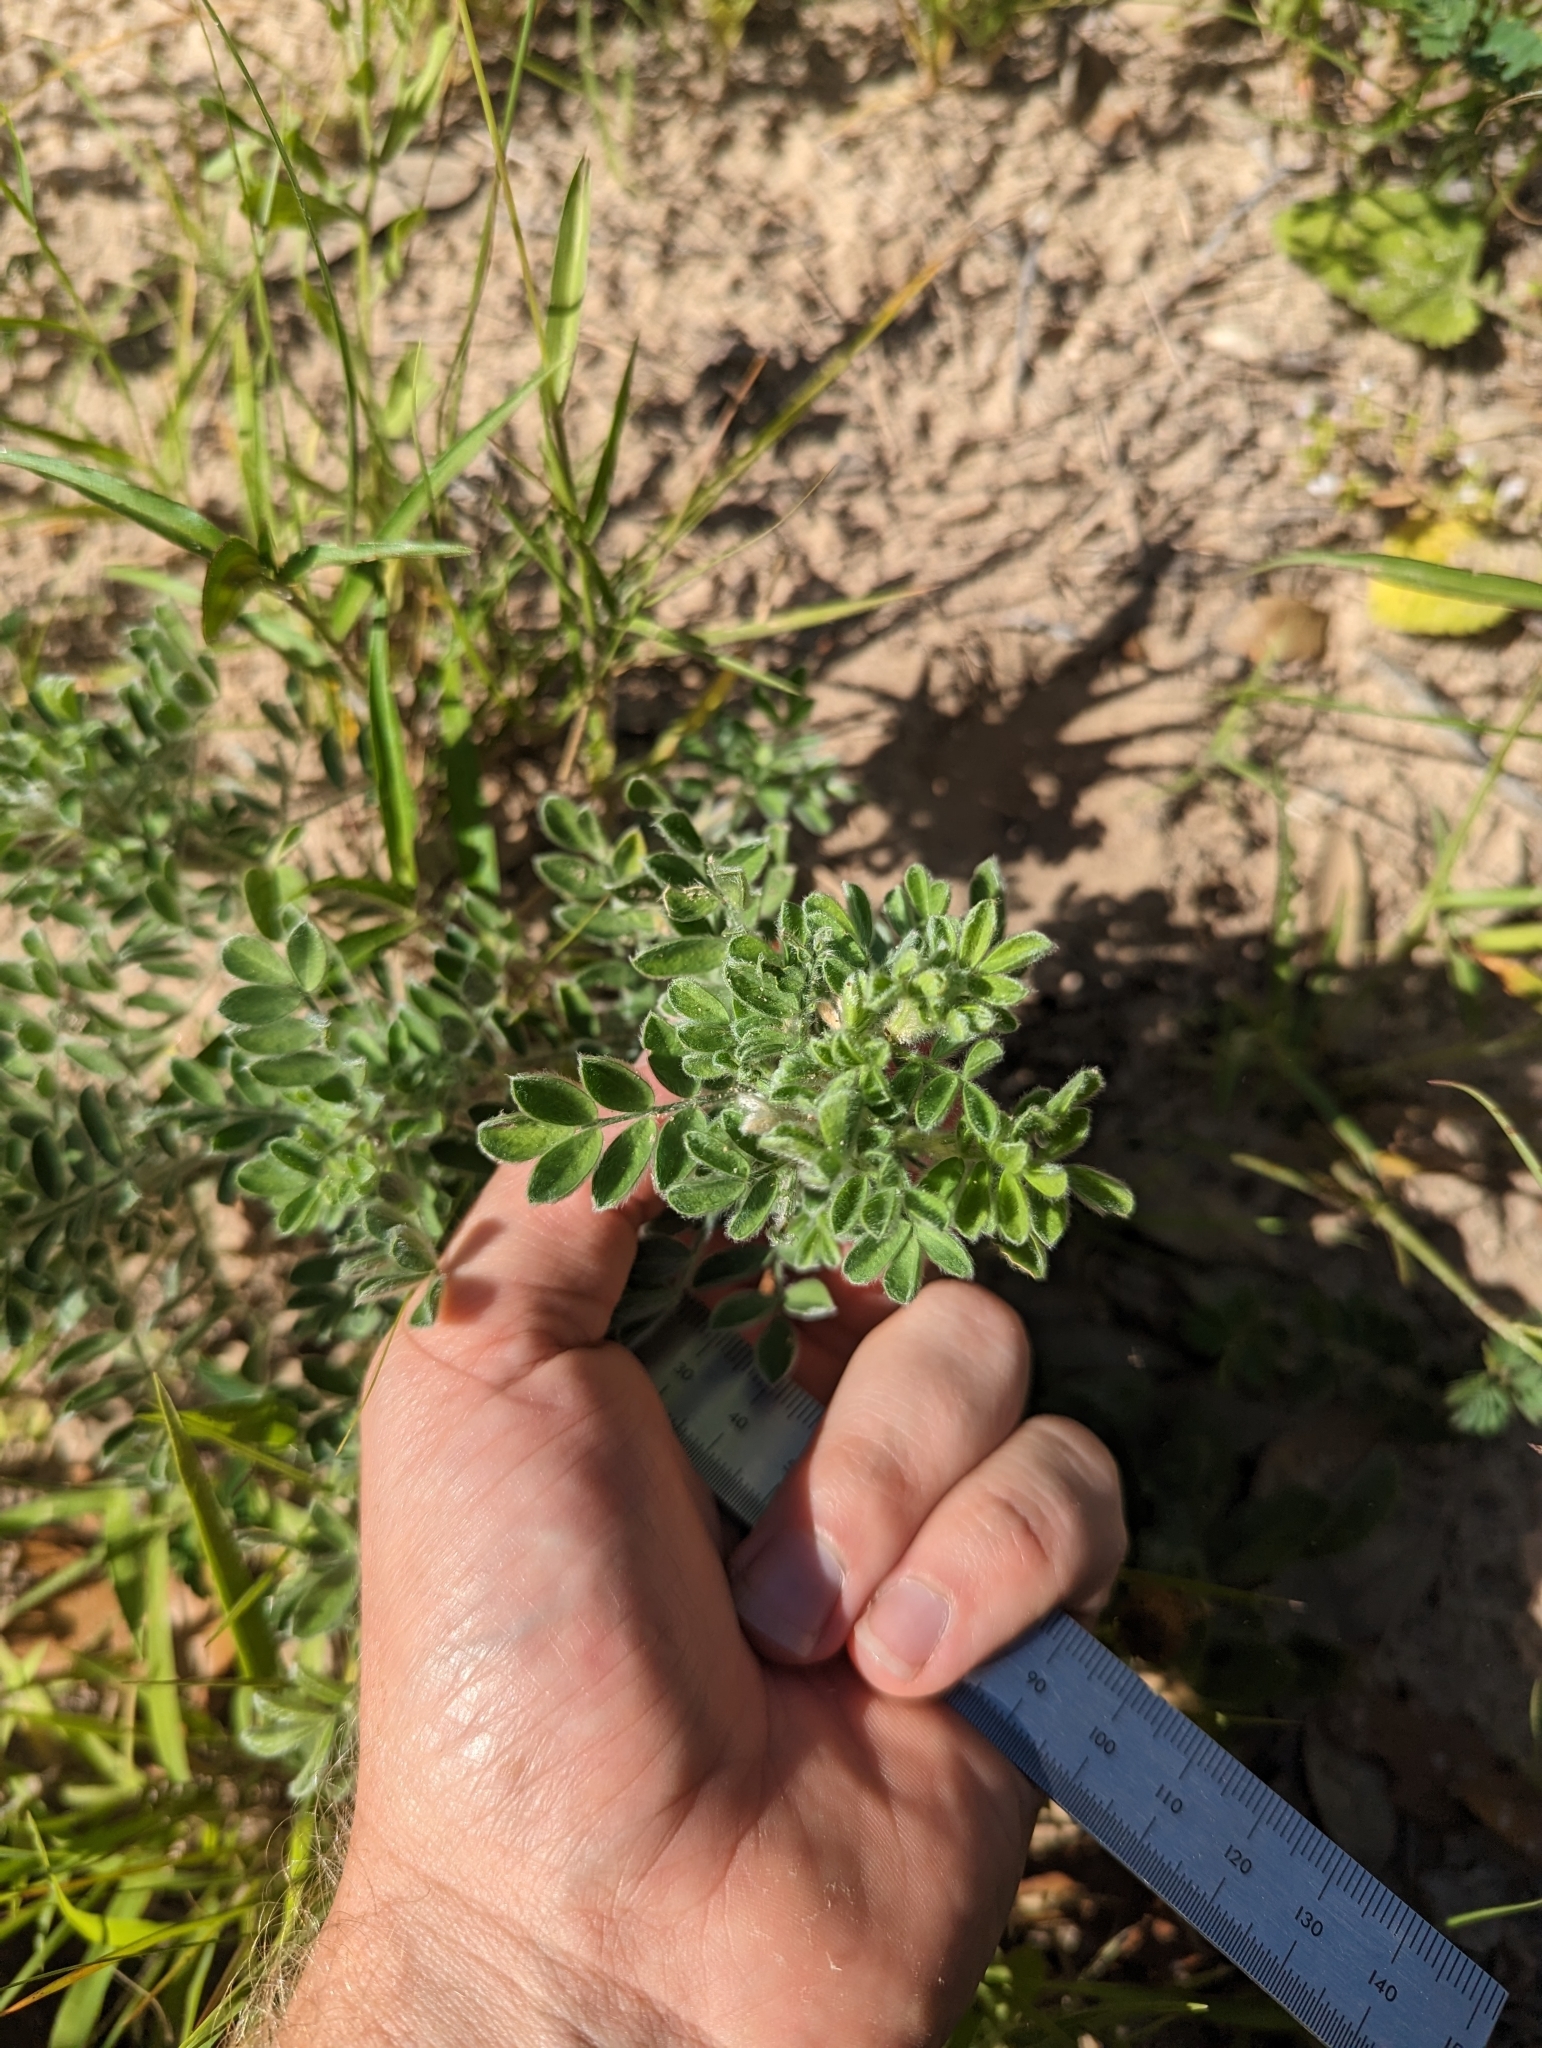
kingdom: Plantae
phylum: Tracheophyta
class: Magnoliopsida
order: Fabales
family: Fabaceae
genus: Dalea
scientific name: Dalea obovata
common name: Pussyfoot
